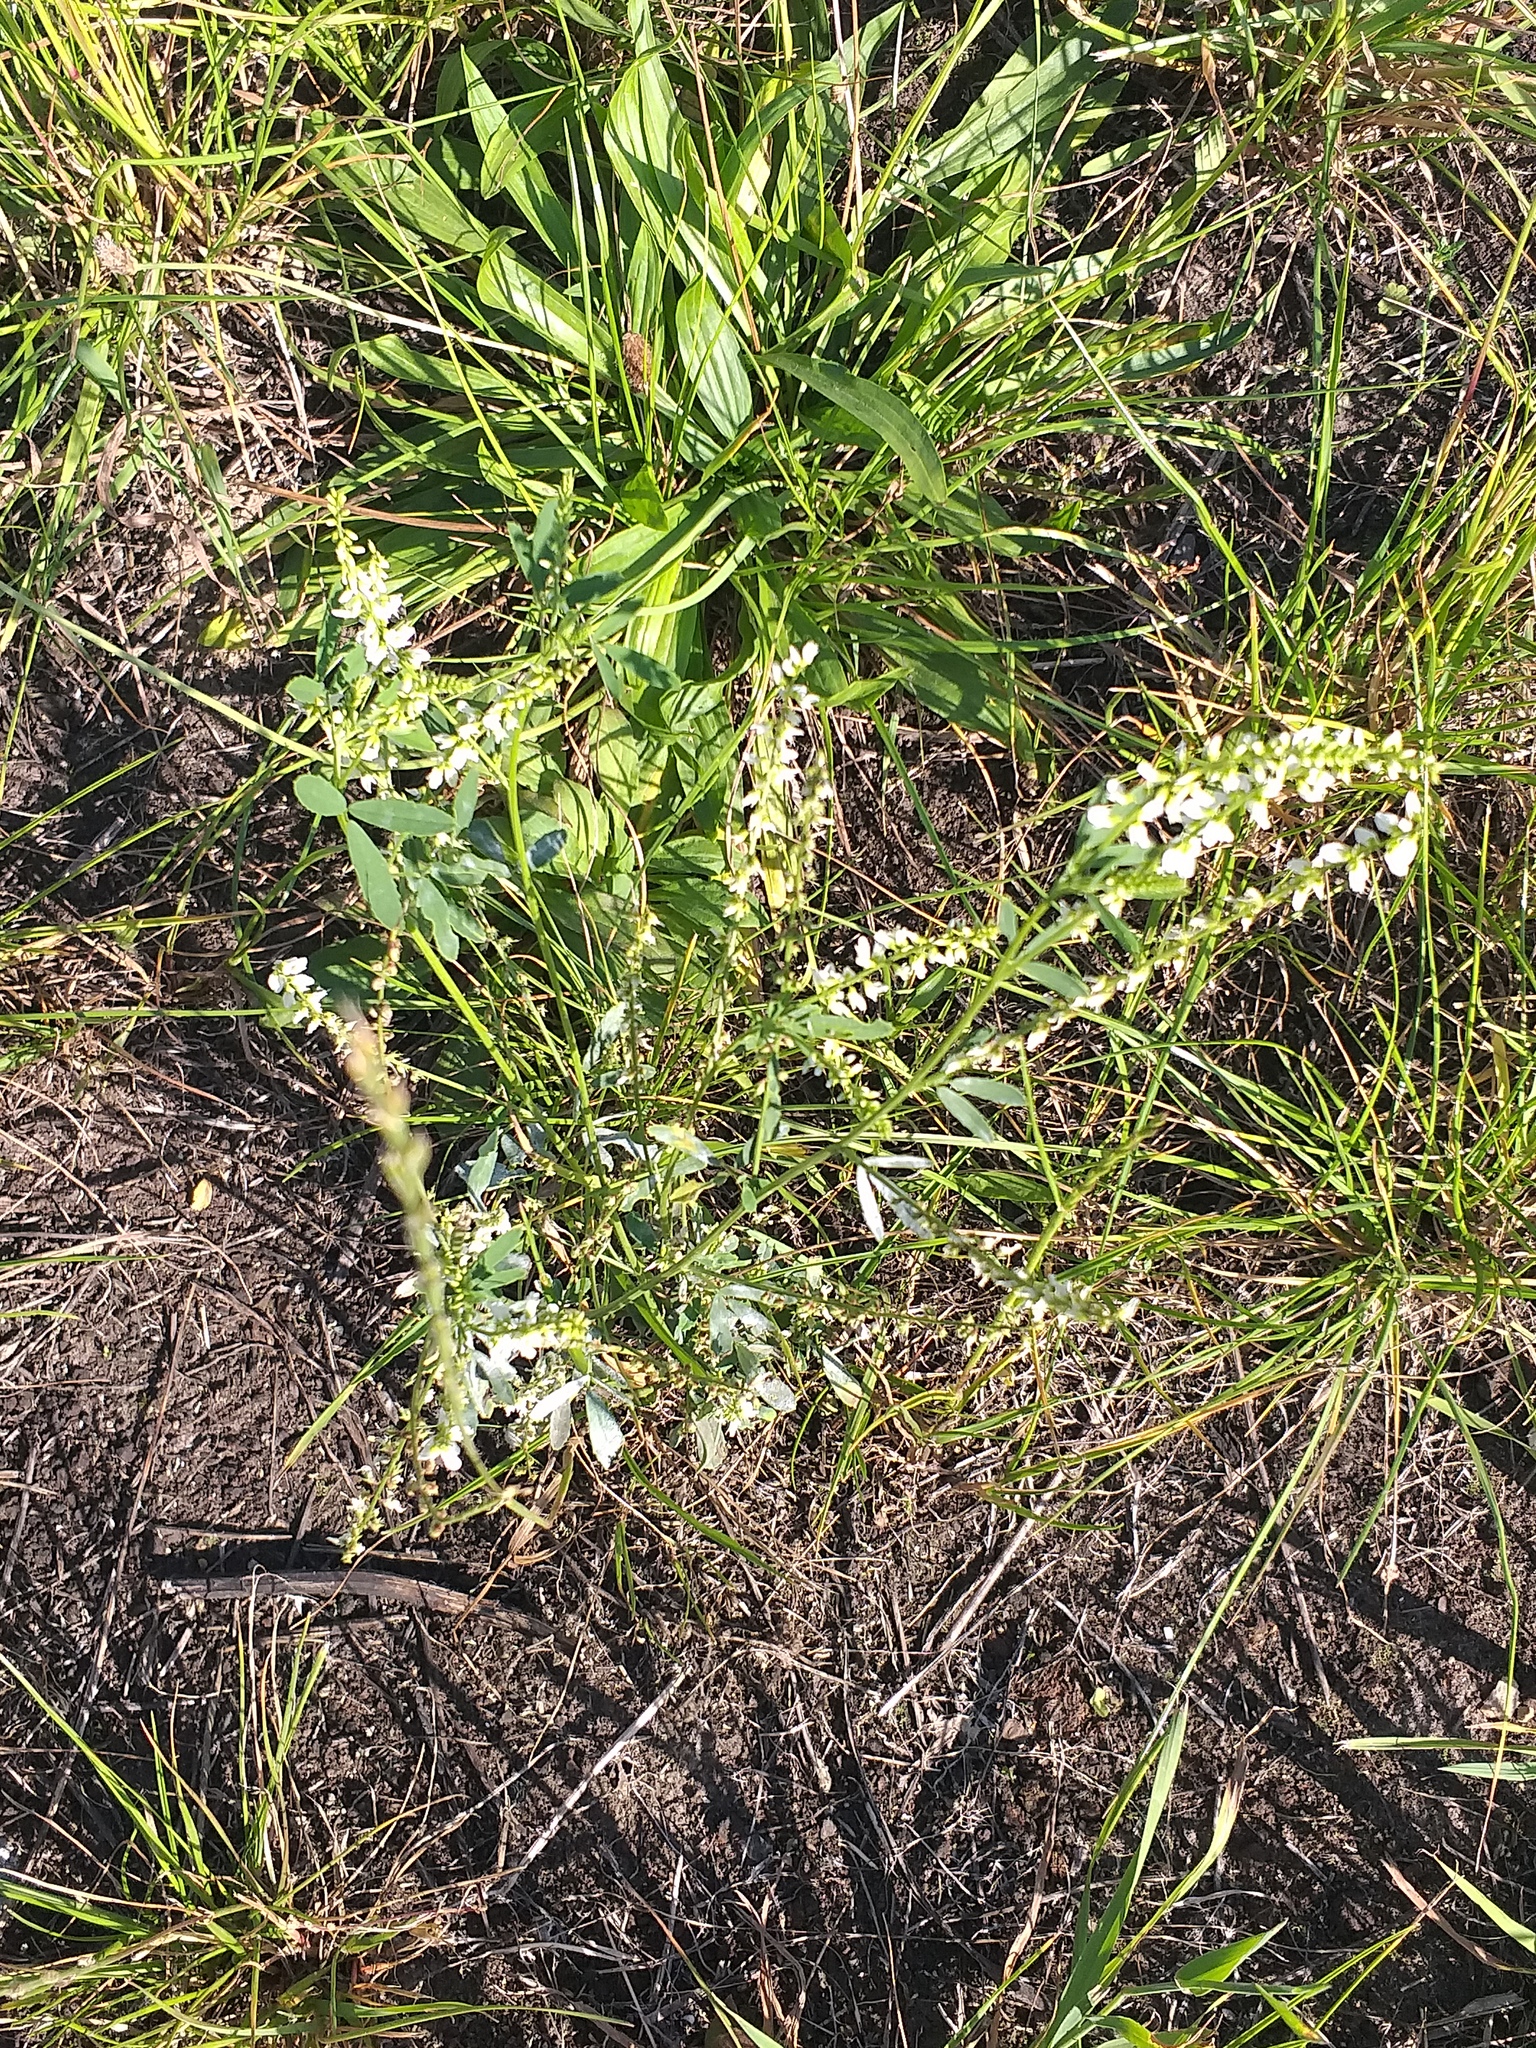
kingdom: Plantae
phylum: Tracheophyta
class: Magnoliopsida
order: Fabales
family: Fabaceae
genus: Melilotus
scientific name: Melilotus albus
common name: White melilot
